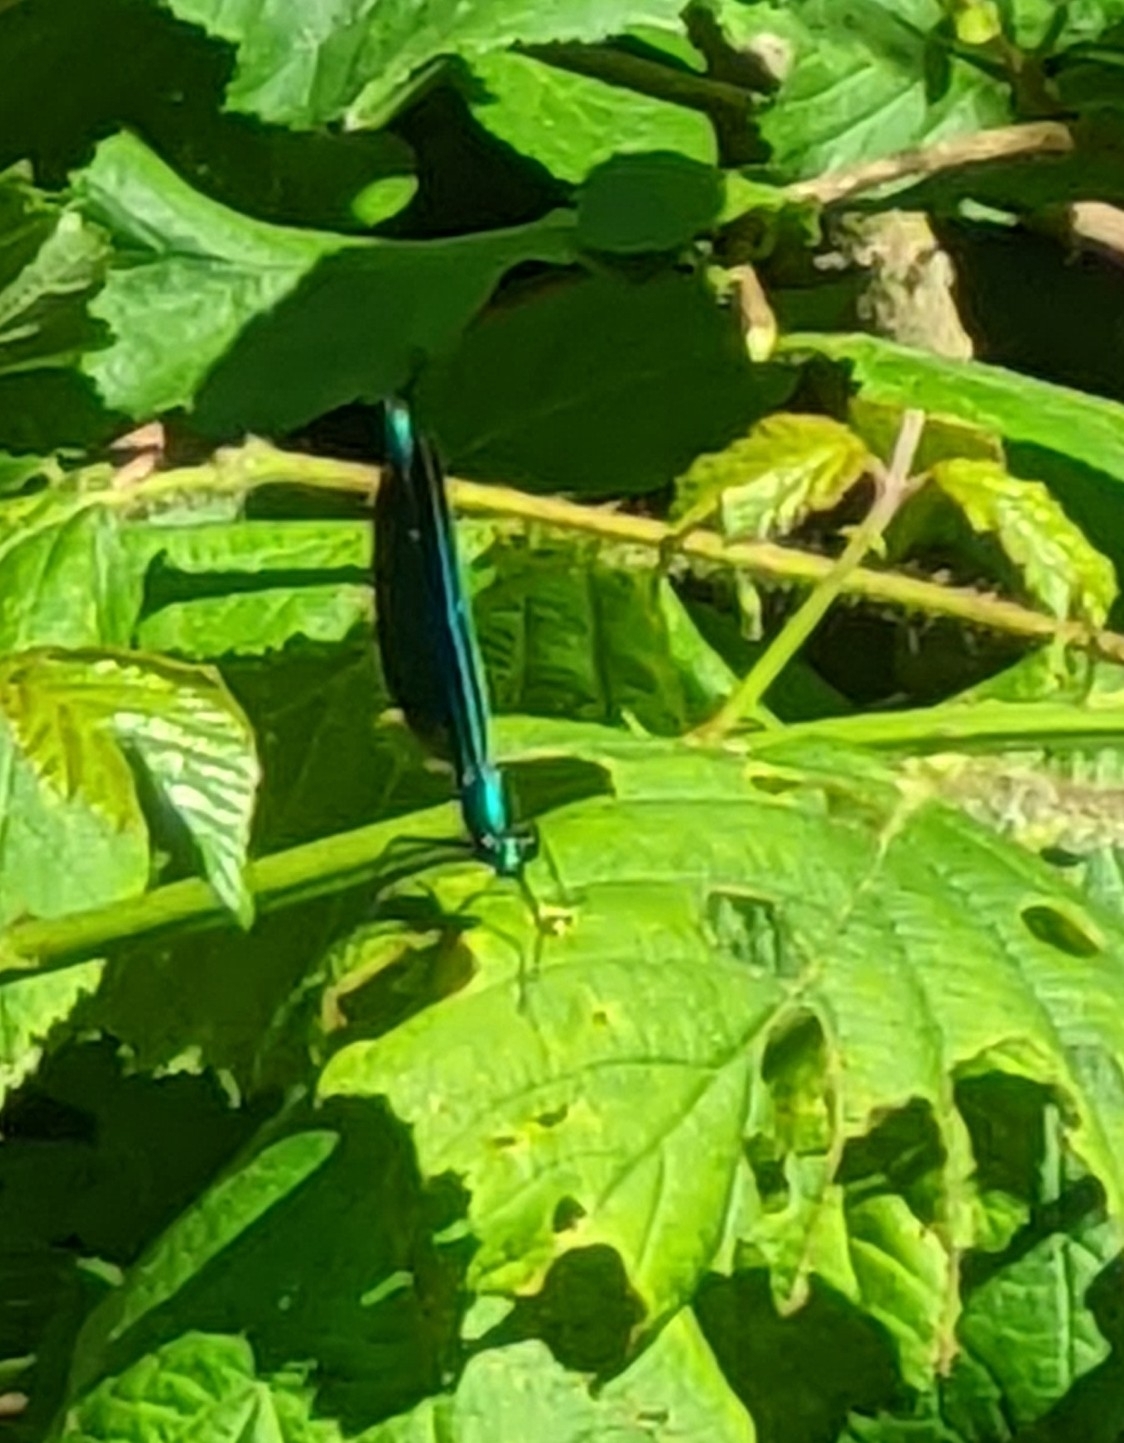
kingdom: Animalia
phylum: Arthropoda
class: Insecta
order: Odonata
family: Calopterygidae
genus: Calopteryx
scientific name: Calopteryx virgo
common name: Beautiful demoiselle
